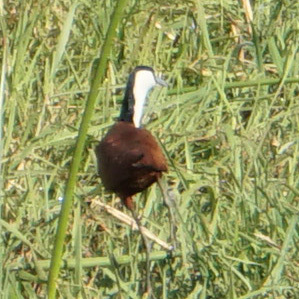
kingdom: Animalia
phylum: Chordata
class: Aves
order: Charadriiformes
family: Jacanidae
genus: Actophilornis
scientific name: Actophilornis africanus
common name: African jacana
